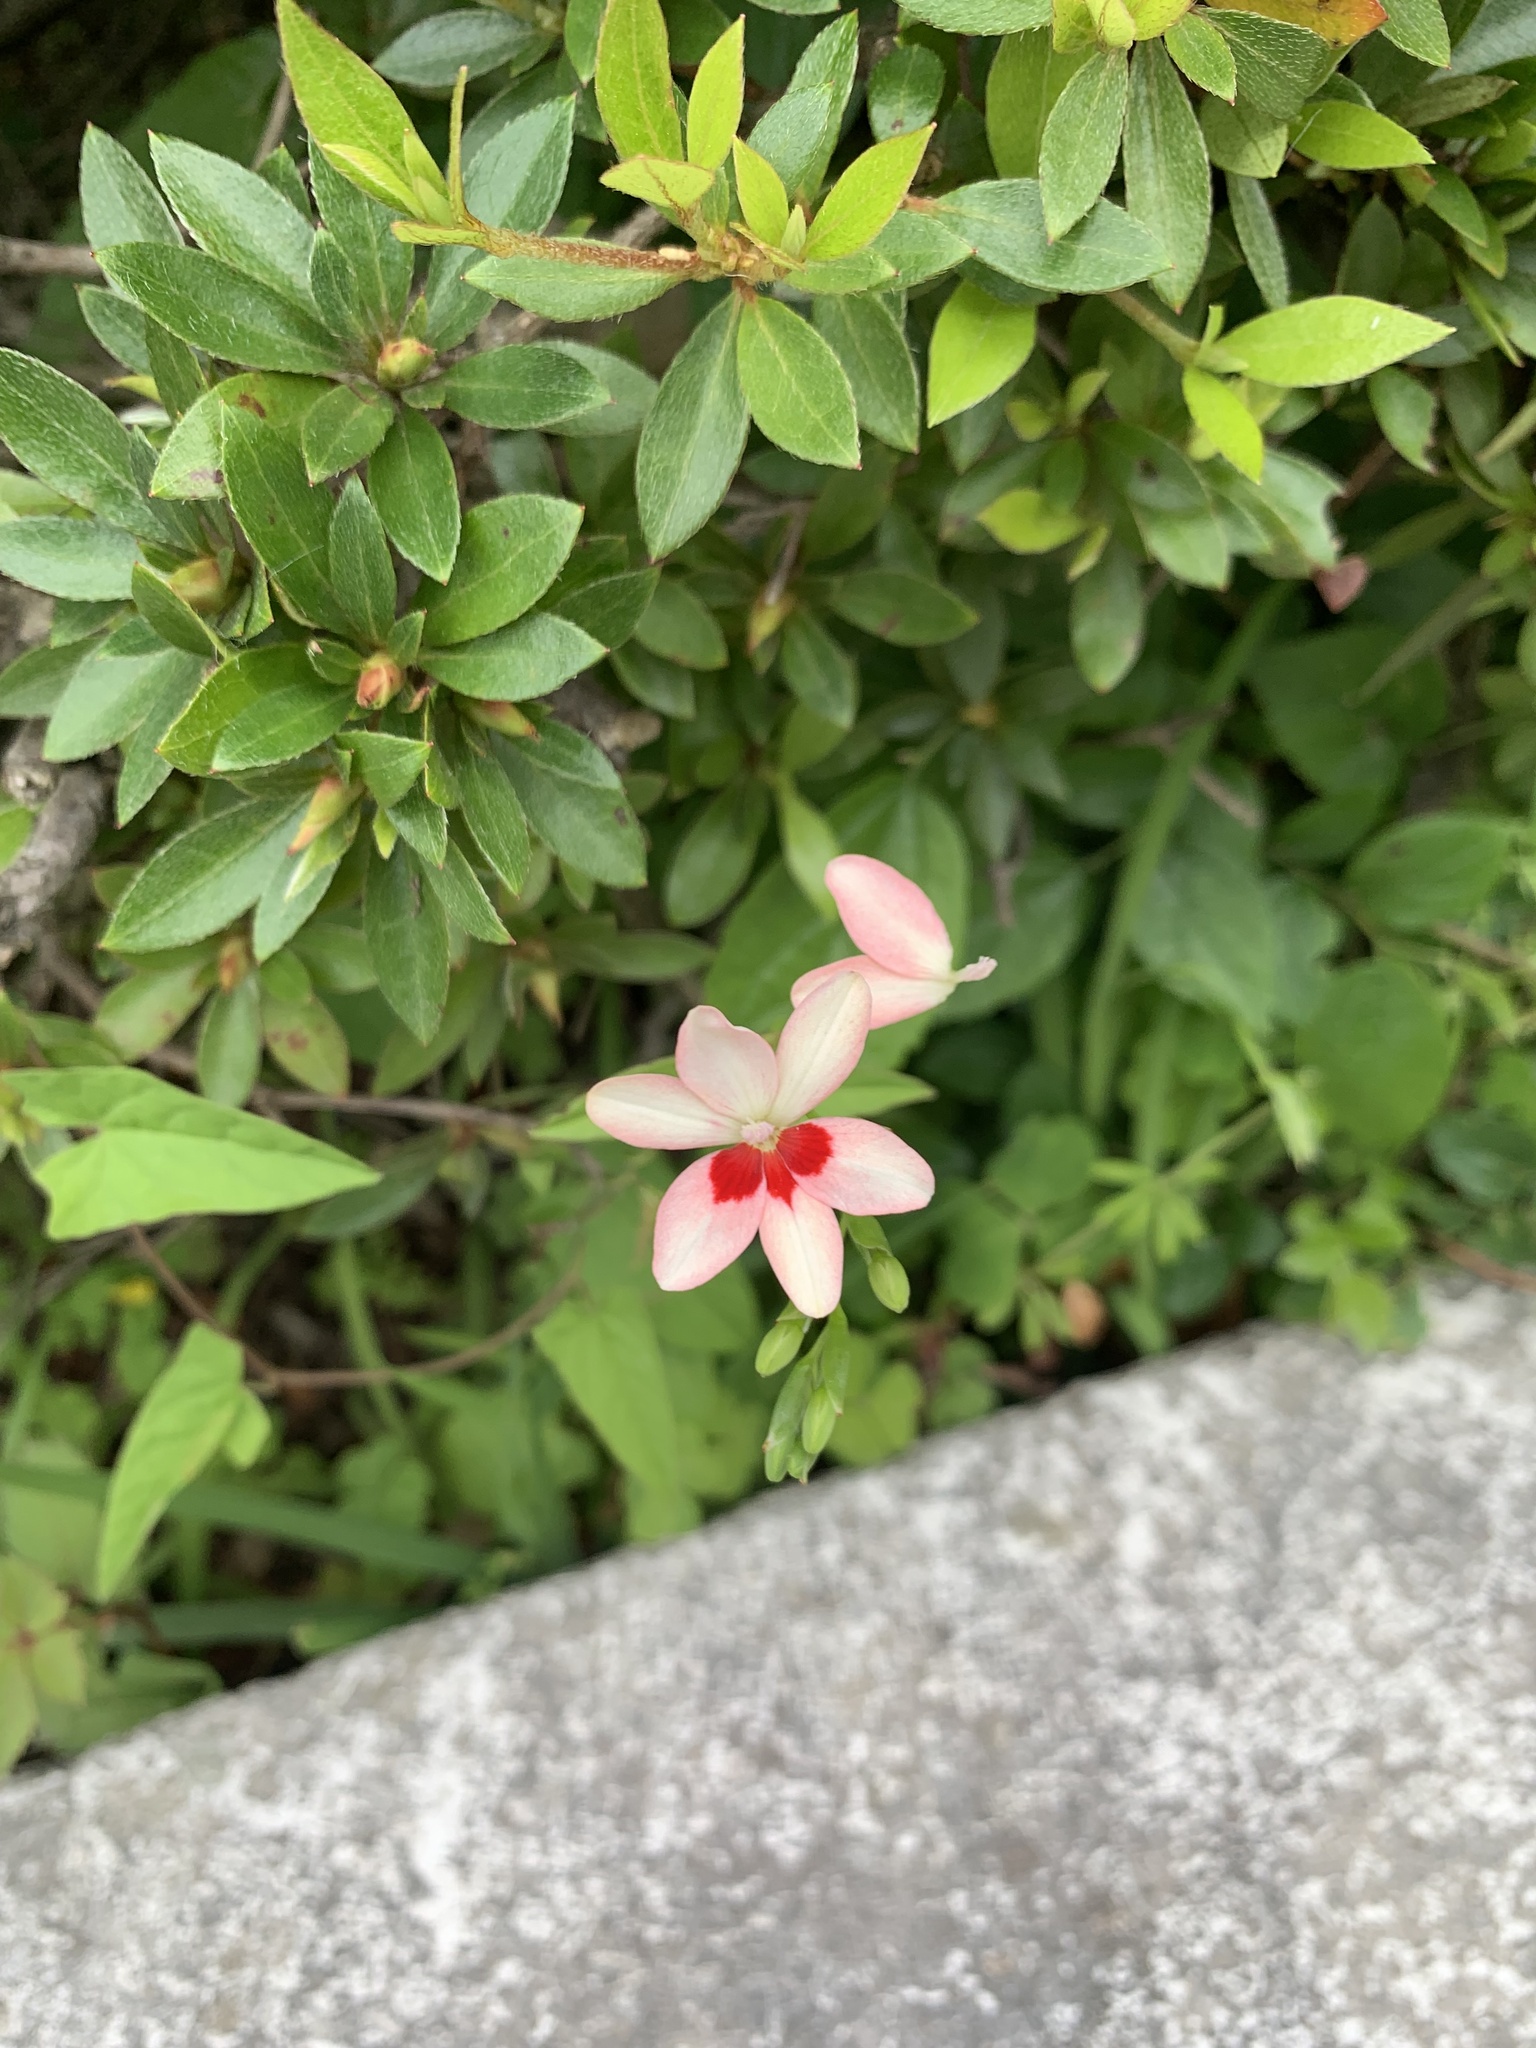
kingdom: Plantae
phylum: Tracheophyta
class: Liliopsida
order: Asparagales
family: Iridaceae
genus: Freesia
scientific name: Freesia laxa
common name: False freesia
